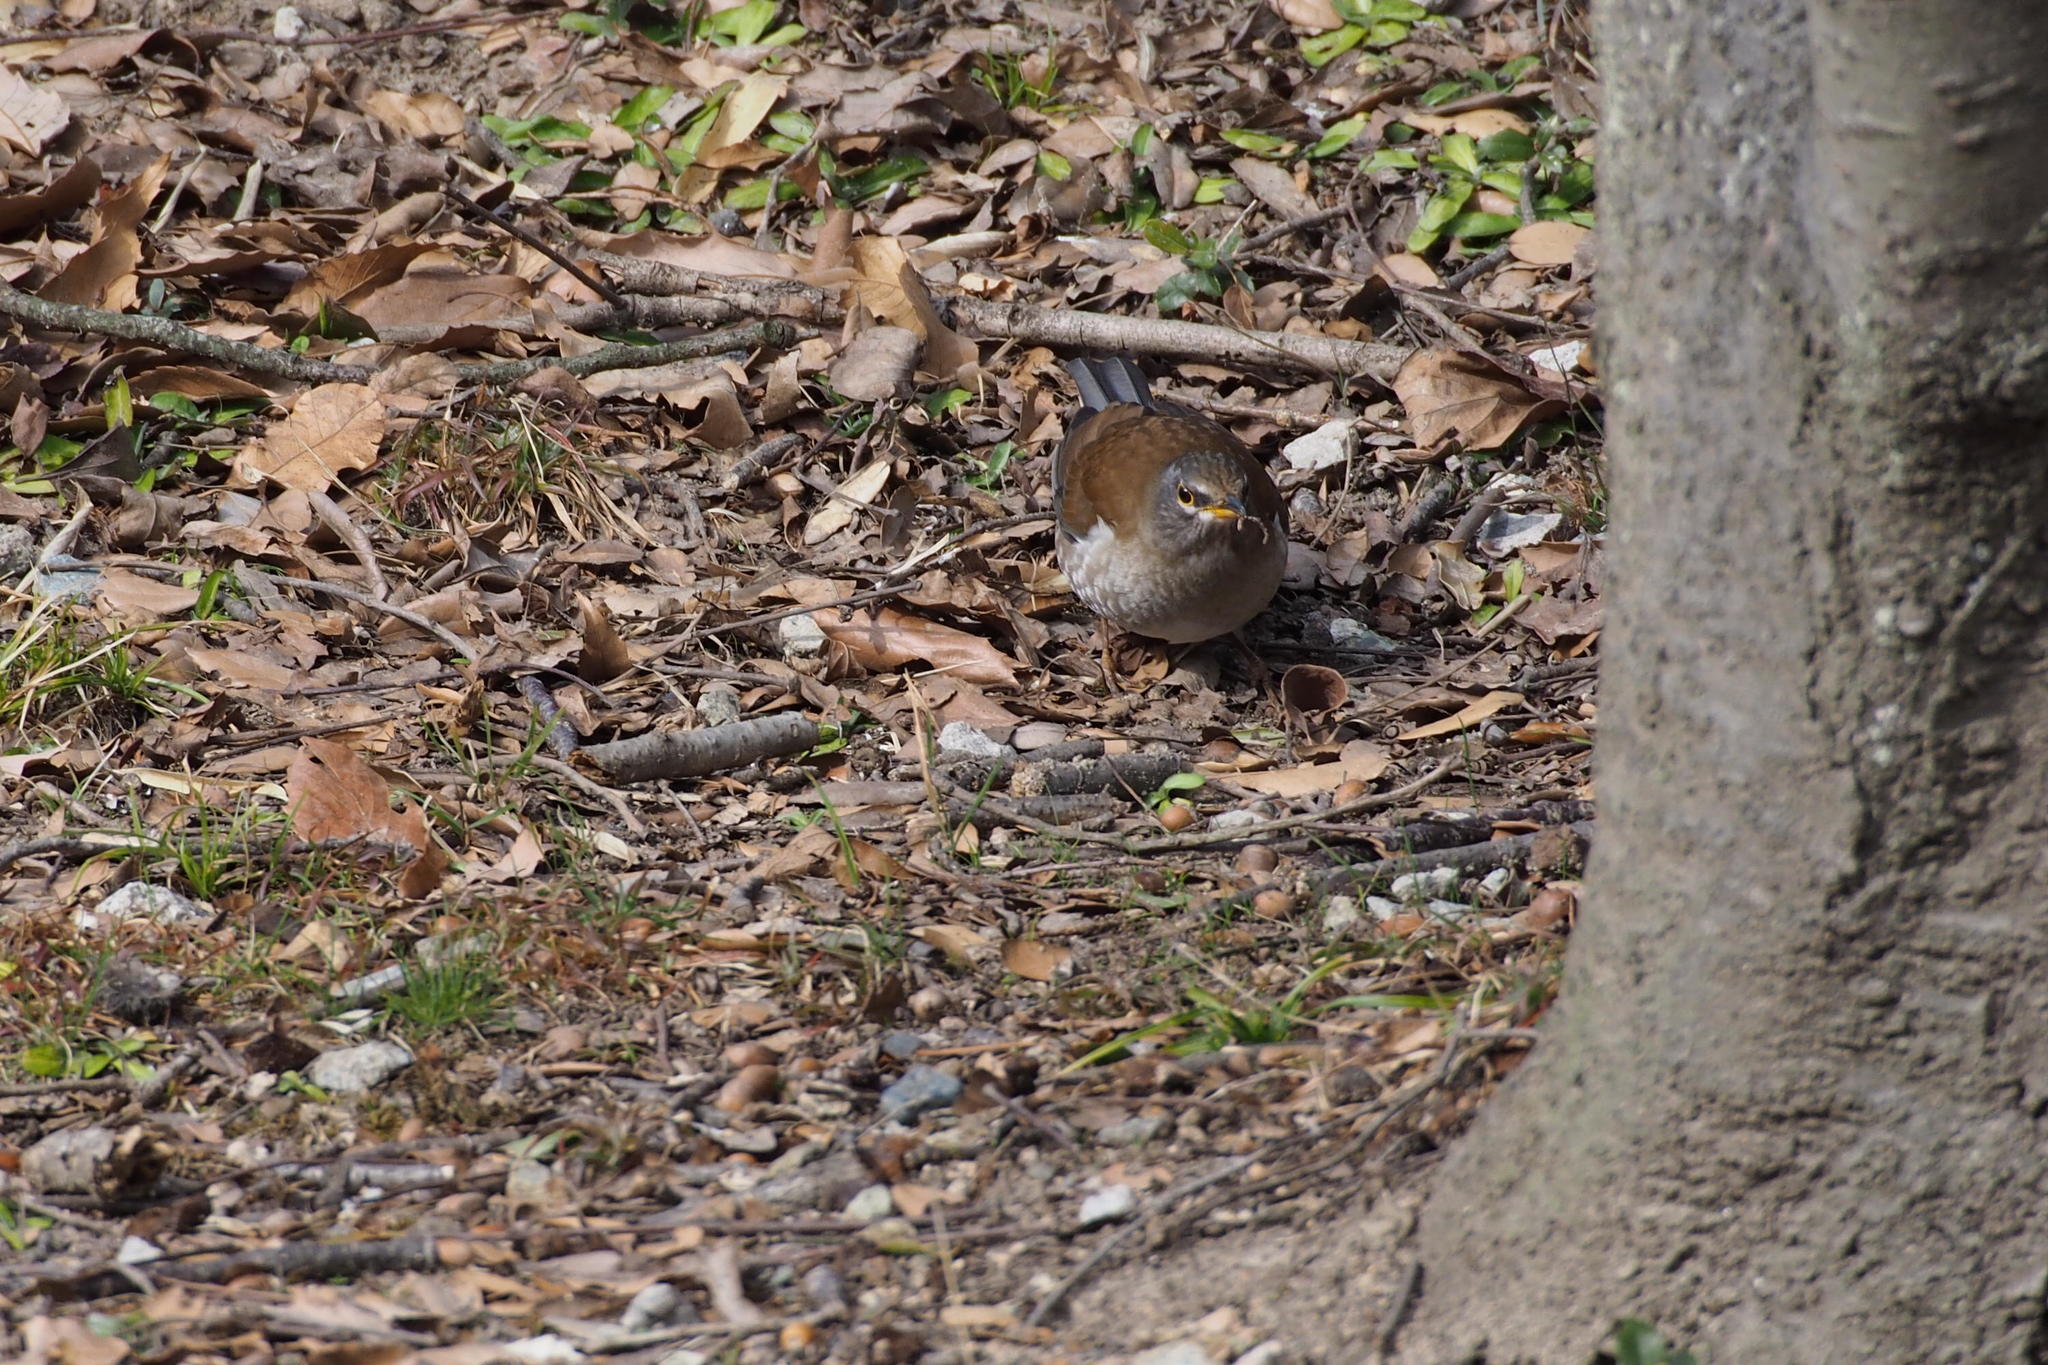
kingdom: Animalia
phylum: Chordata
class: Aves
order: Passeriformes
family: Turdidae
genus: Turdus
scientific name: Turdus pallidus
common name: Pale thrush
